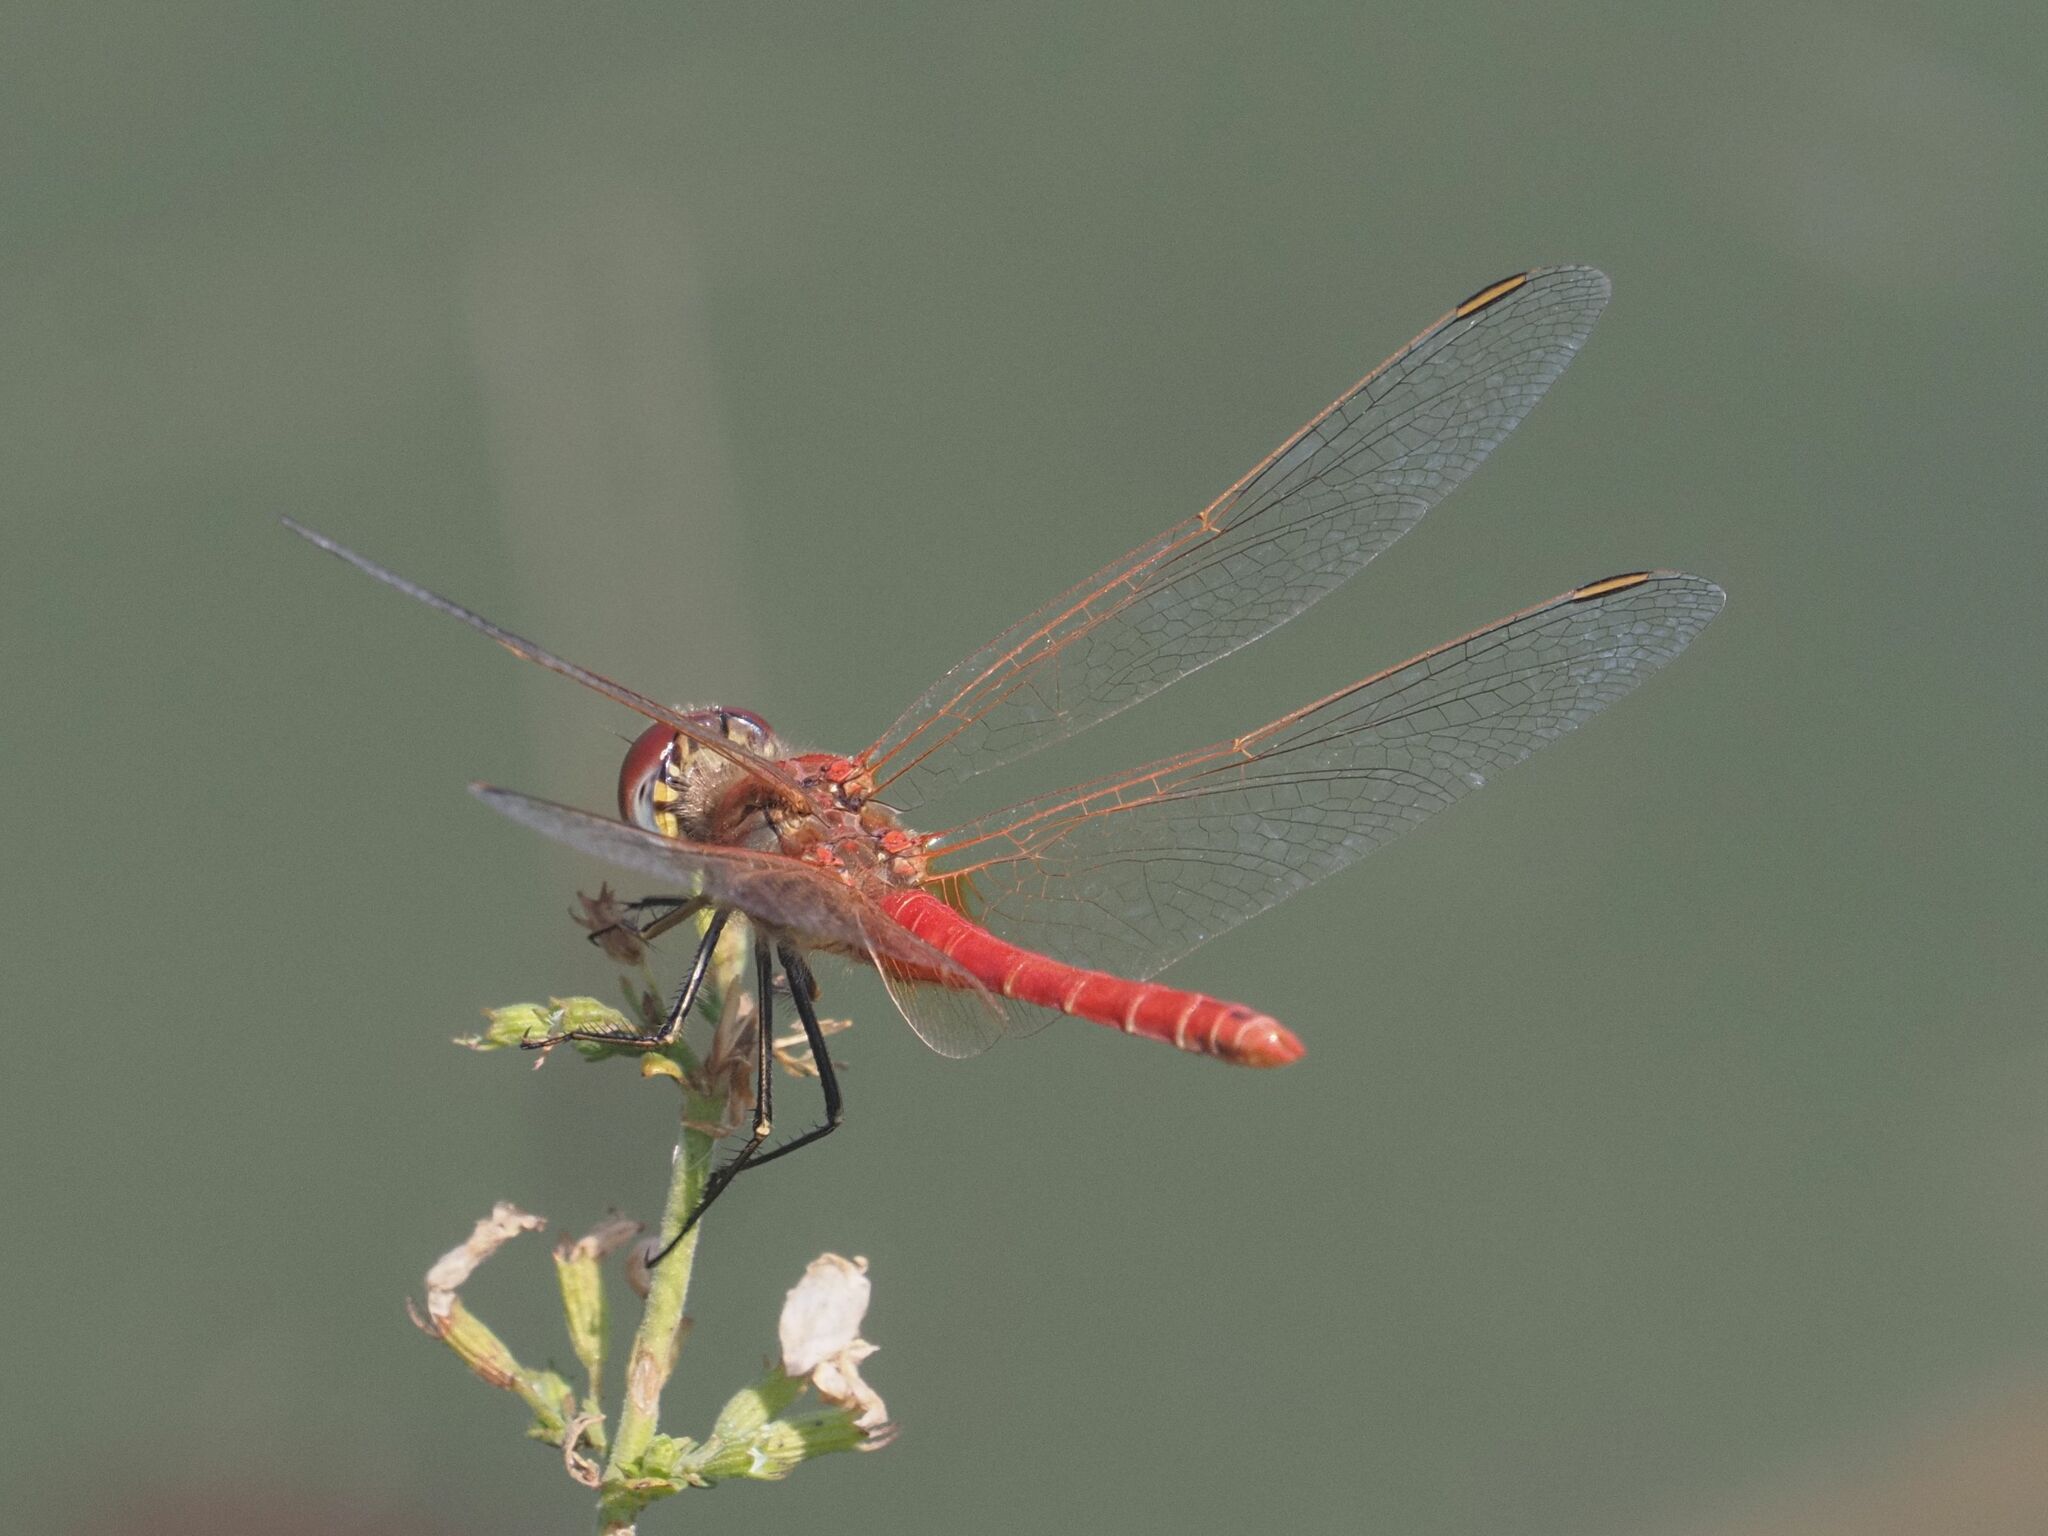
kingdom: Animalia
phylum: Arthropoda
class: Insecta
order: Odonata
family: Libellulidae
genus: Sympetrum
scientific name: Sympetrum fonscolombii
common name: Red-veined darter
